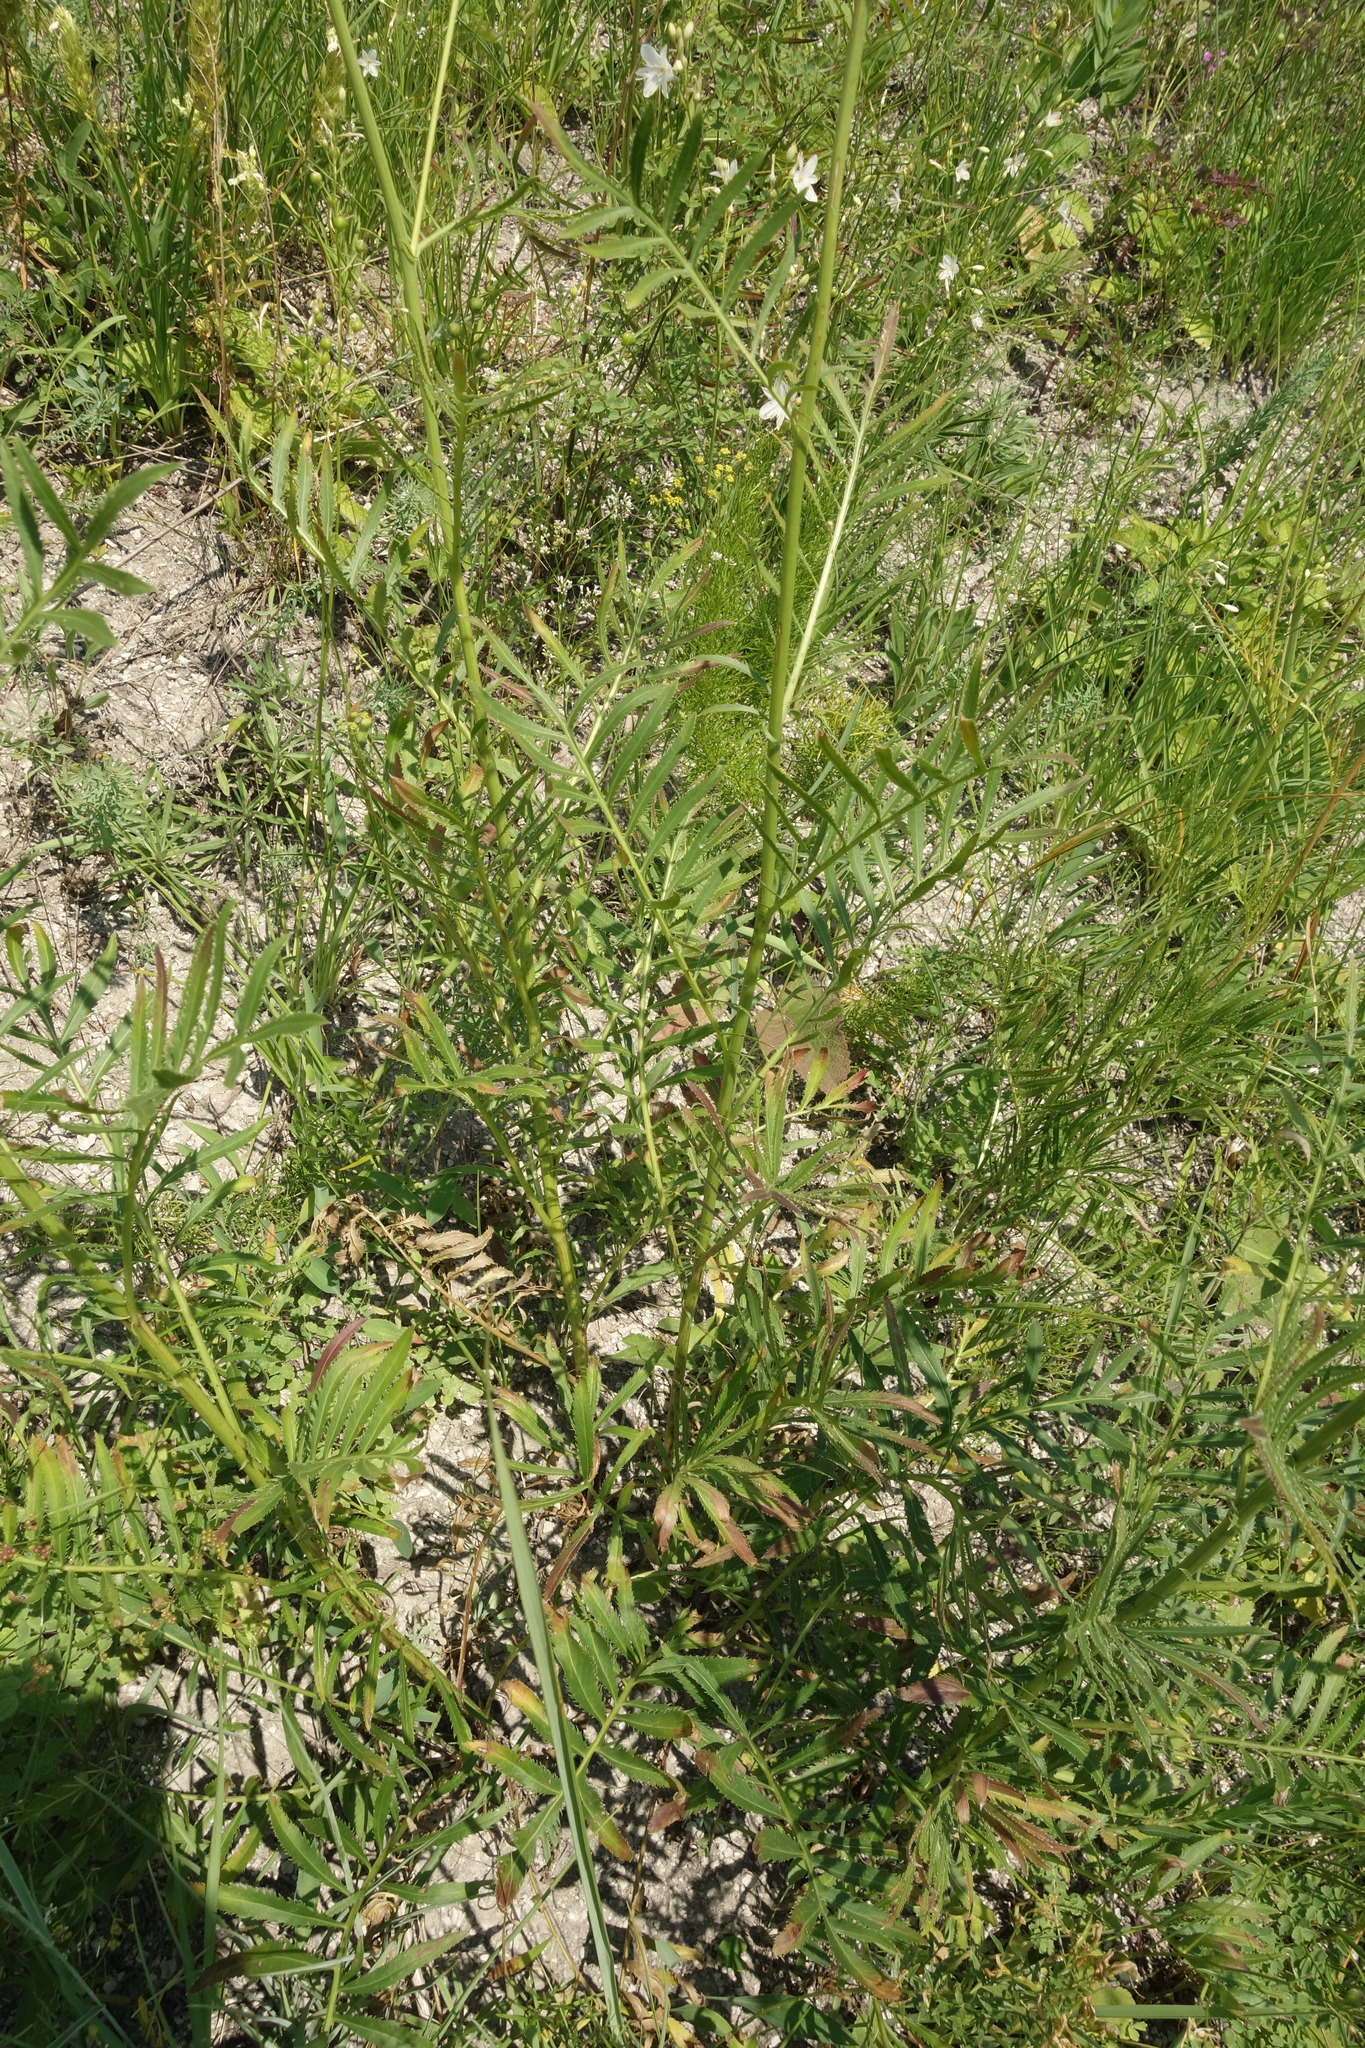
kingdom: Plantae
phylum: Tracheophyta
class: Magnoliopsida
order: Asterales
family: Asteraceae
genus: Rhaponticoides
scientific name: Rhaponticoides ruthenica
